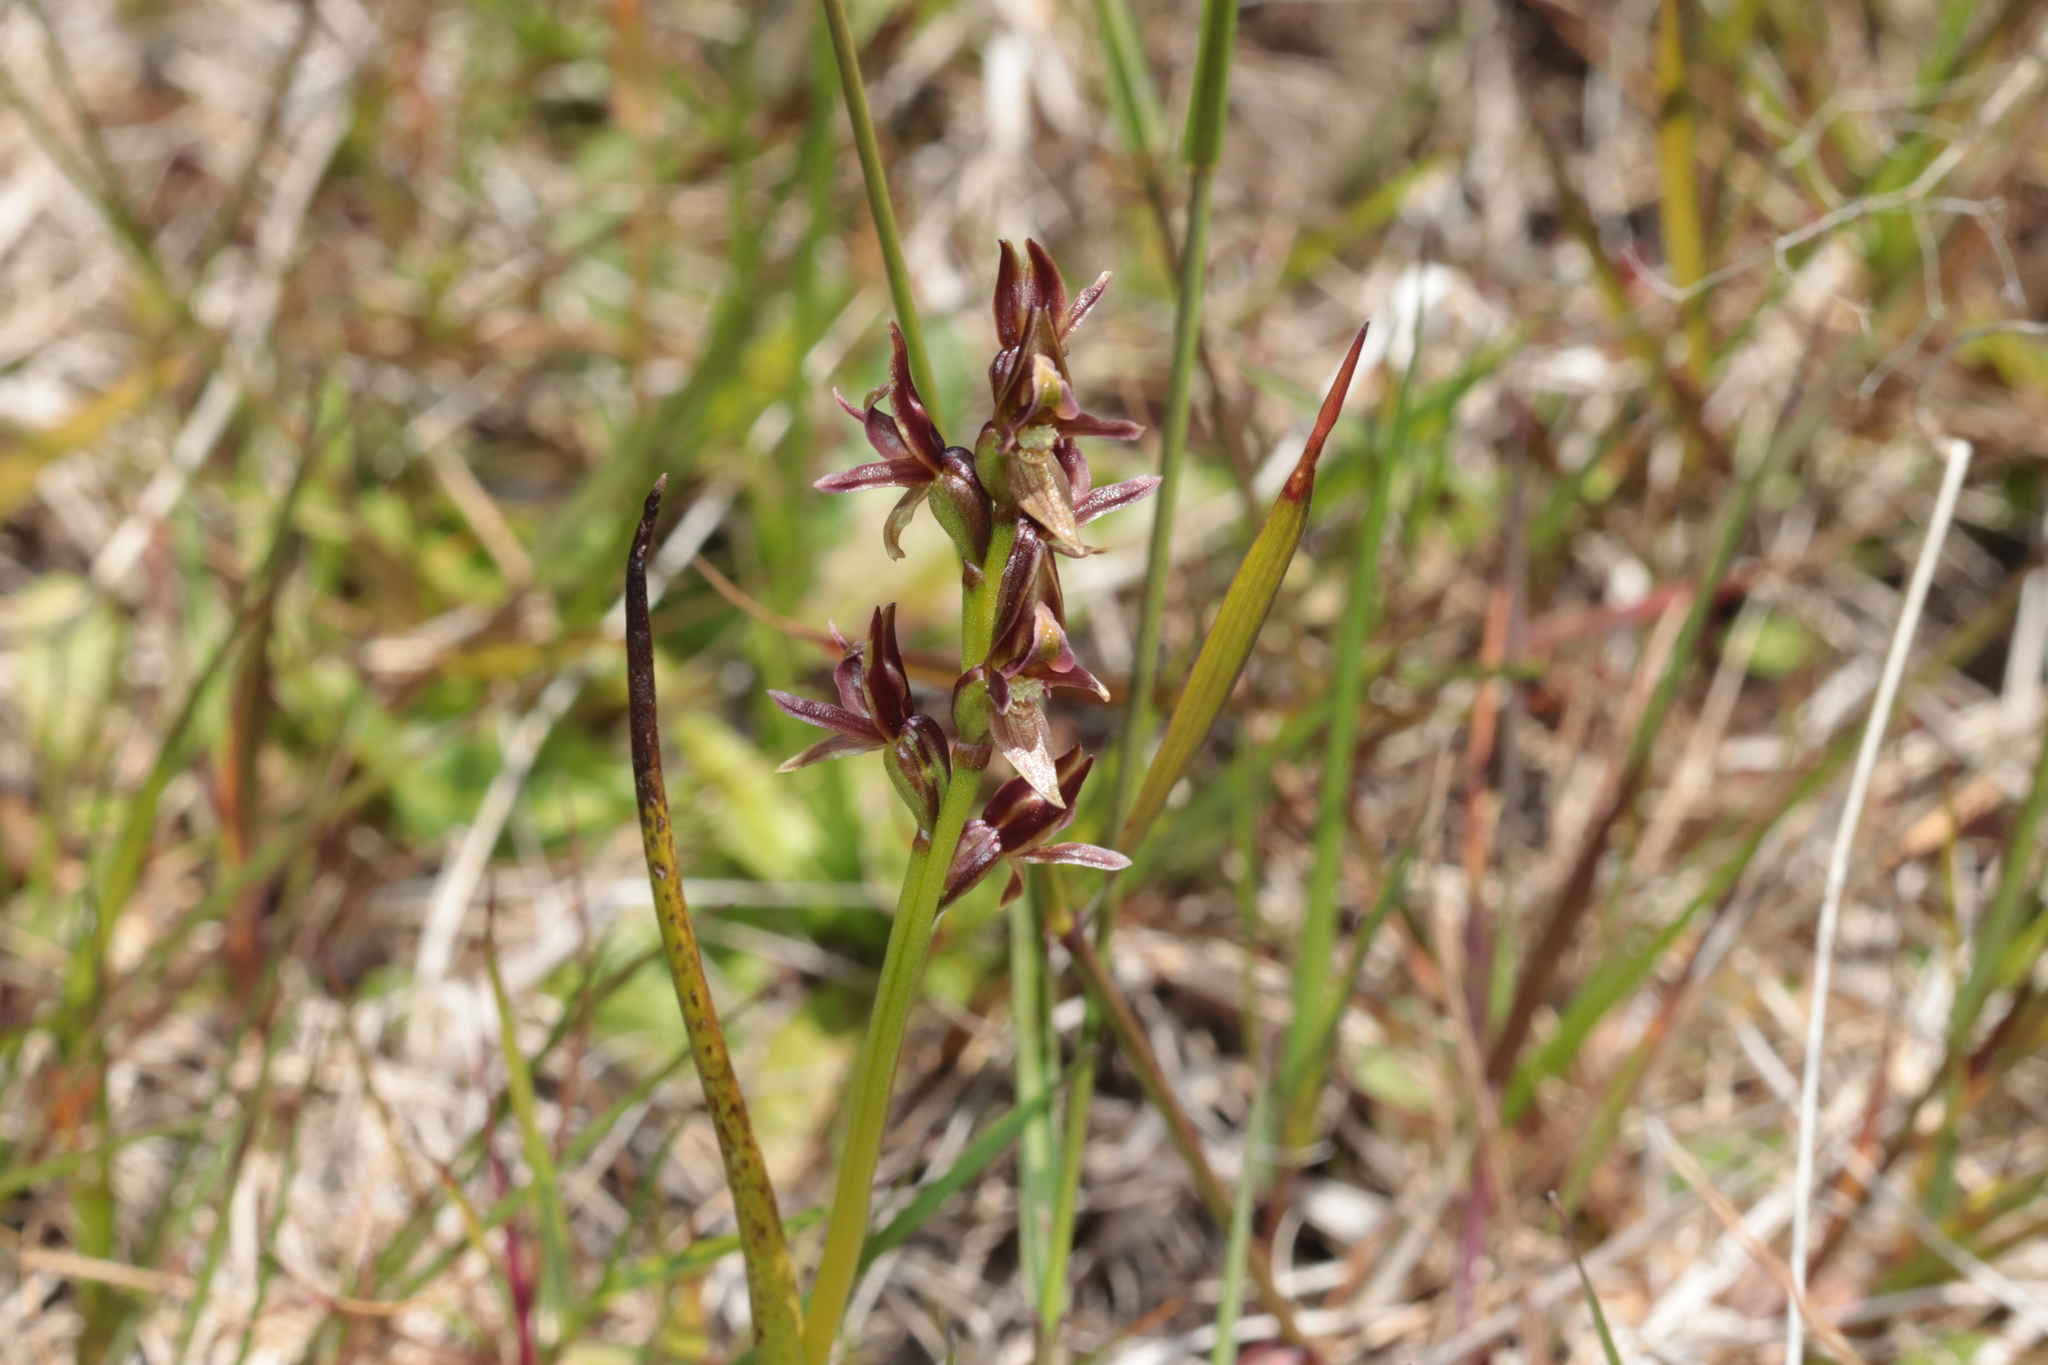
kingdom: Plantae
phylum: Tracheophyta
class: Liliopsida
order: Asparagales
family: Orchidaceae
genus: Prasophyllum
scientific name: Prasophyllum colensoi
